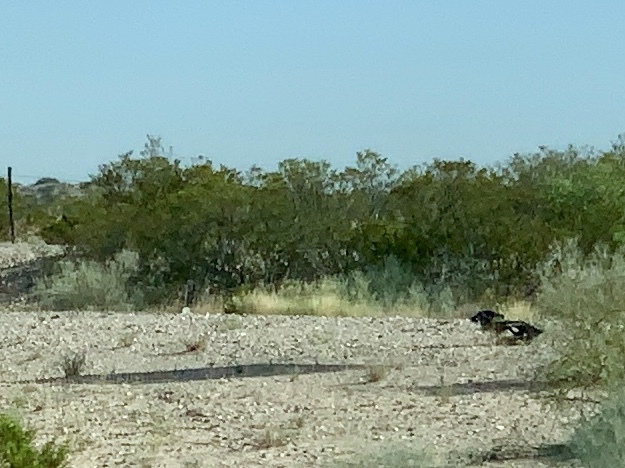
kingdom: Plantae
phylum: Tracheophyta
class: Magnoliopsida
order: Zygophyllales
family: Zygophyllaceae
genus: Larrea
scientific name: Larrea tridentata
